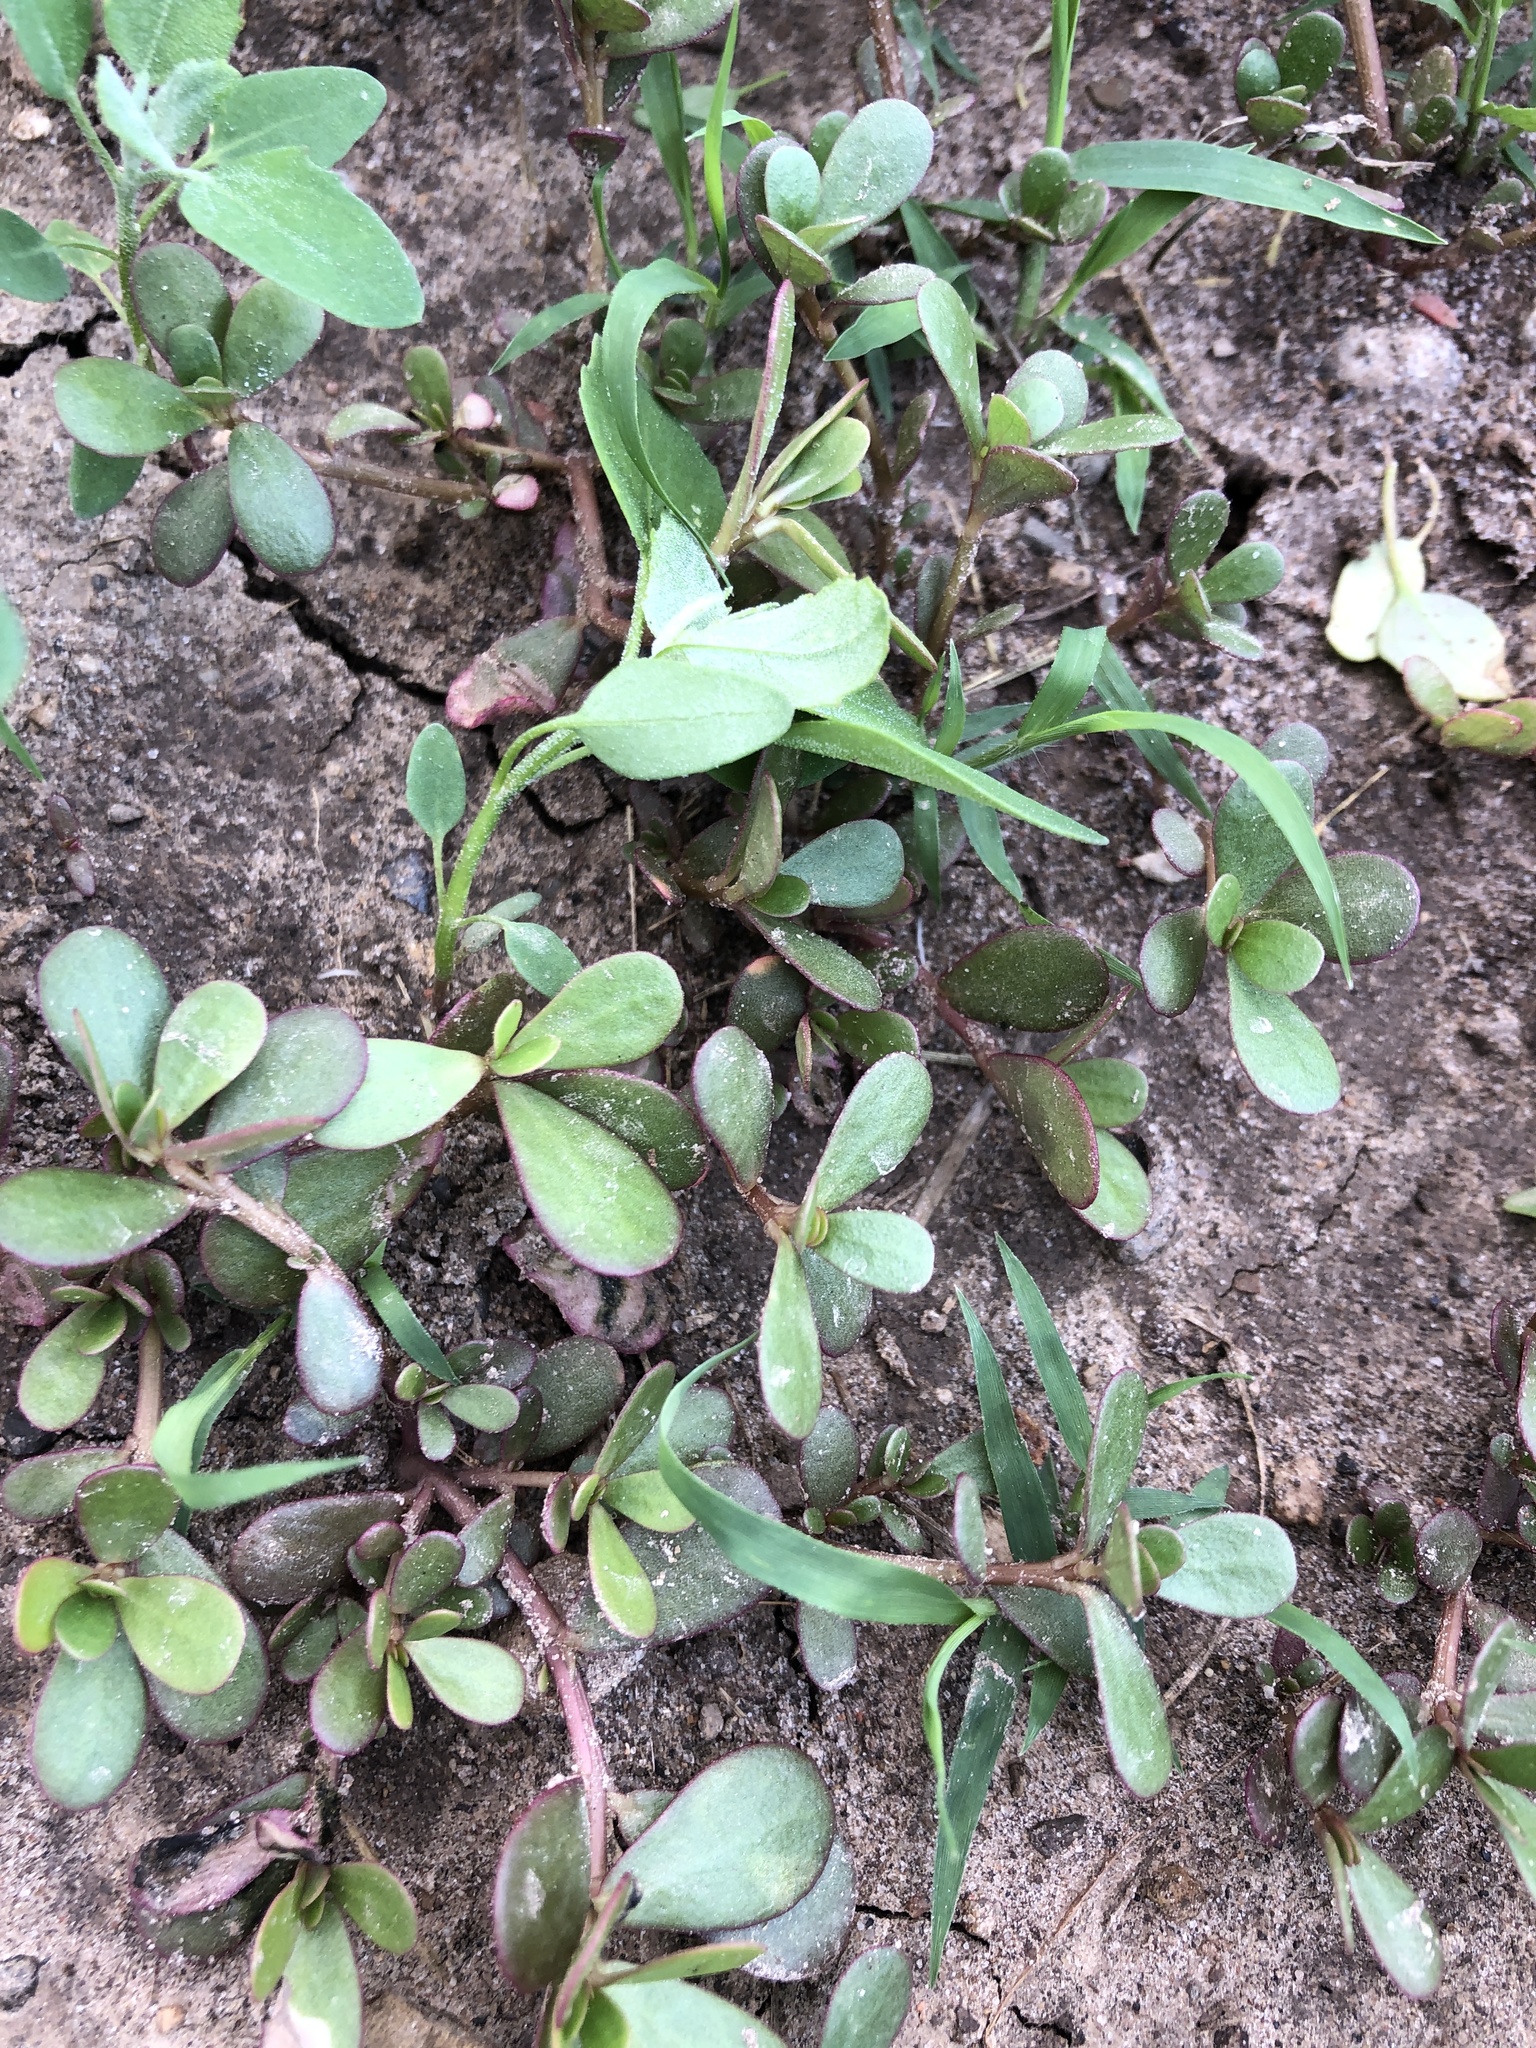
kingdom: Plantae
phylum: Tracheophyta
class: Magnoliopsida
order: Caryophyllales
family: Portulacaceae
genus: Portulaca
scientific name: Portulaca oleracea
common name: Common purslane
